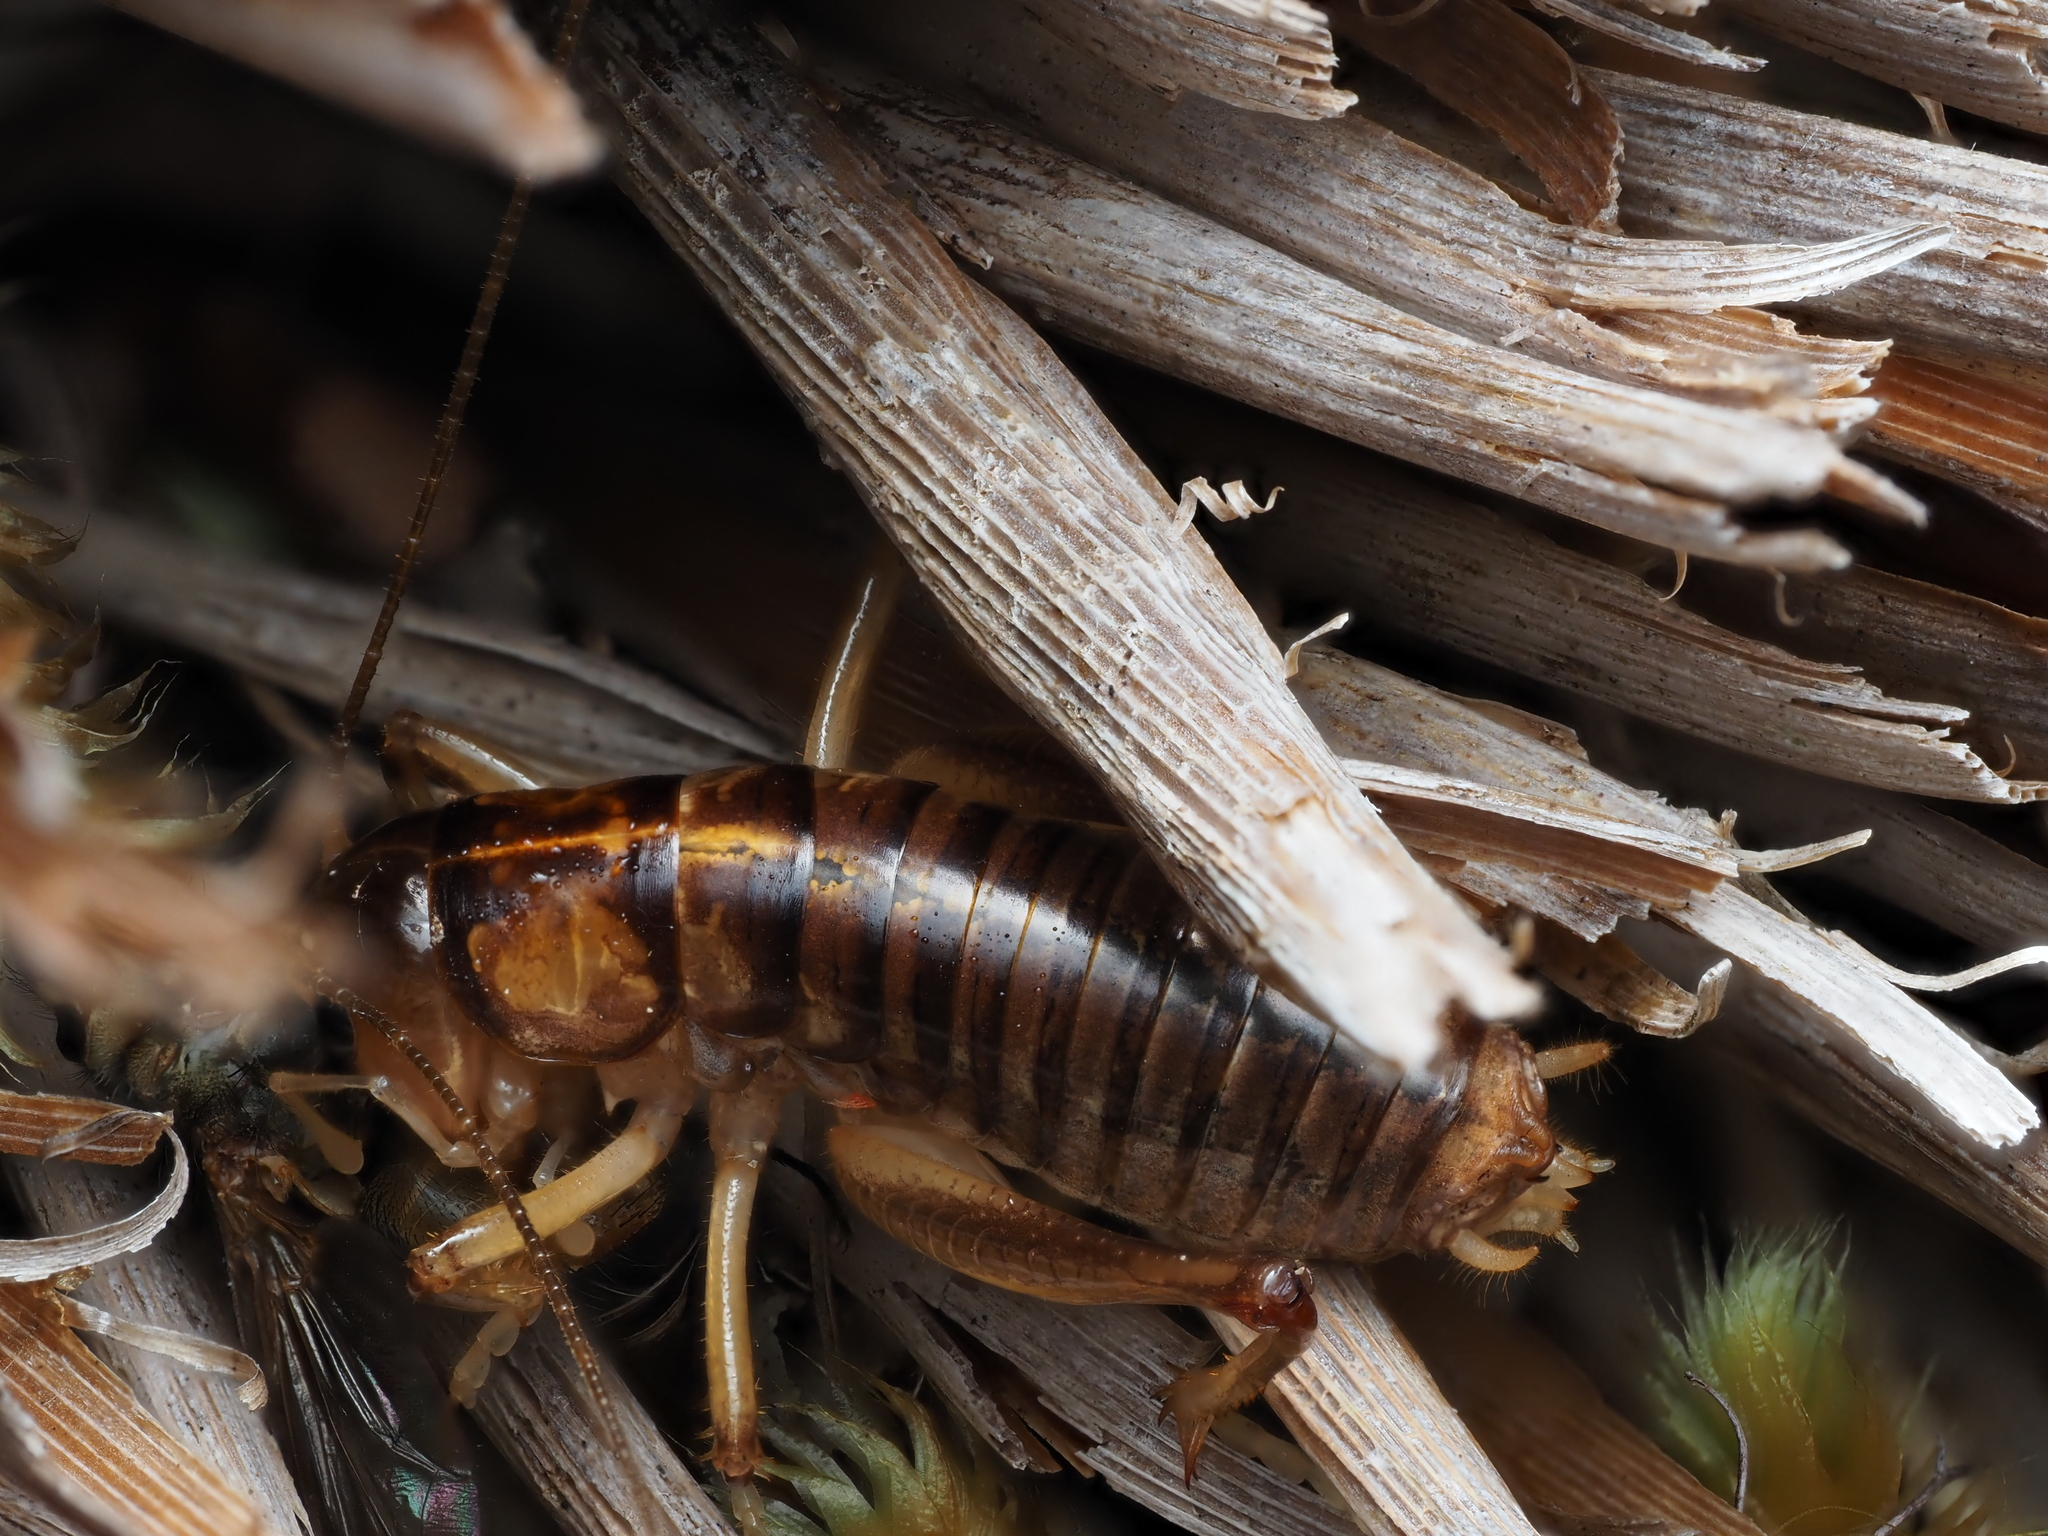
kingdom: Animalia
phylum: Arthropoda
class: Insecta
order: Orthoptera
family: Anostostomatidae
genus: Hemiandrus
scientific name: Hemiandrus pallitarsis
